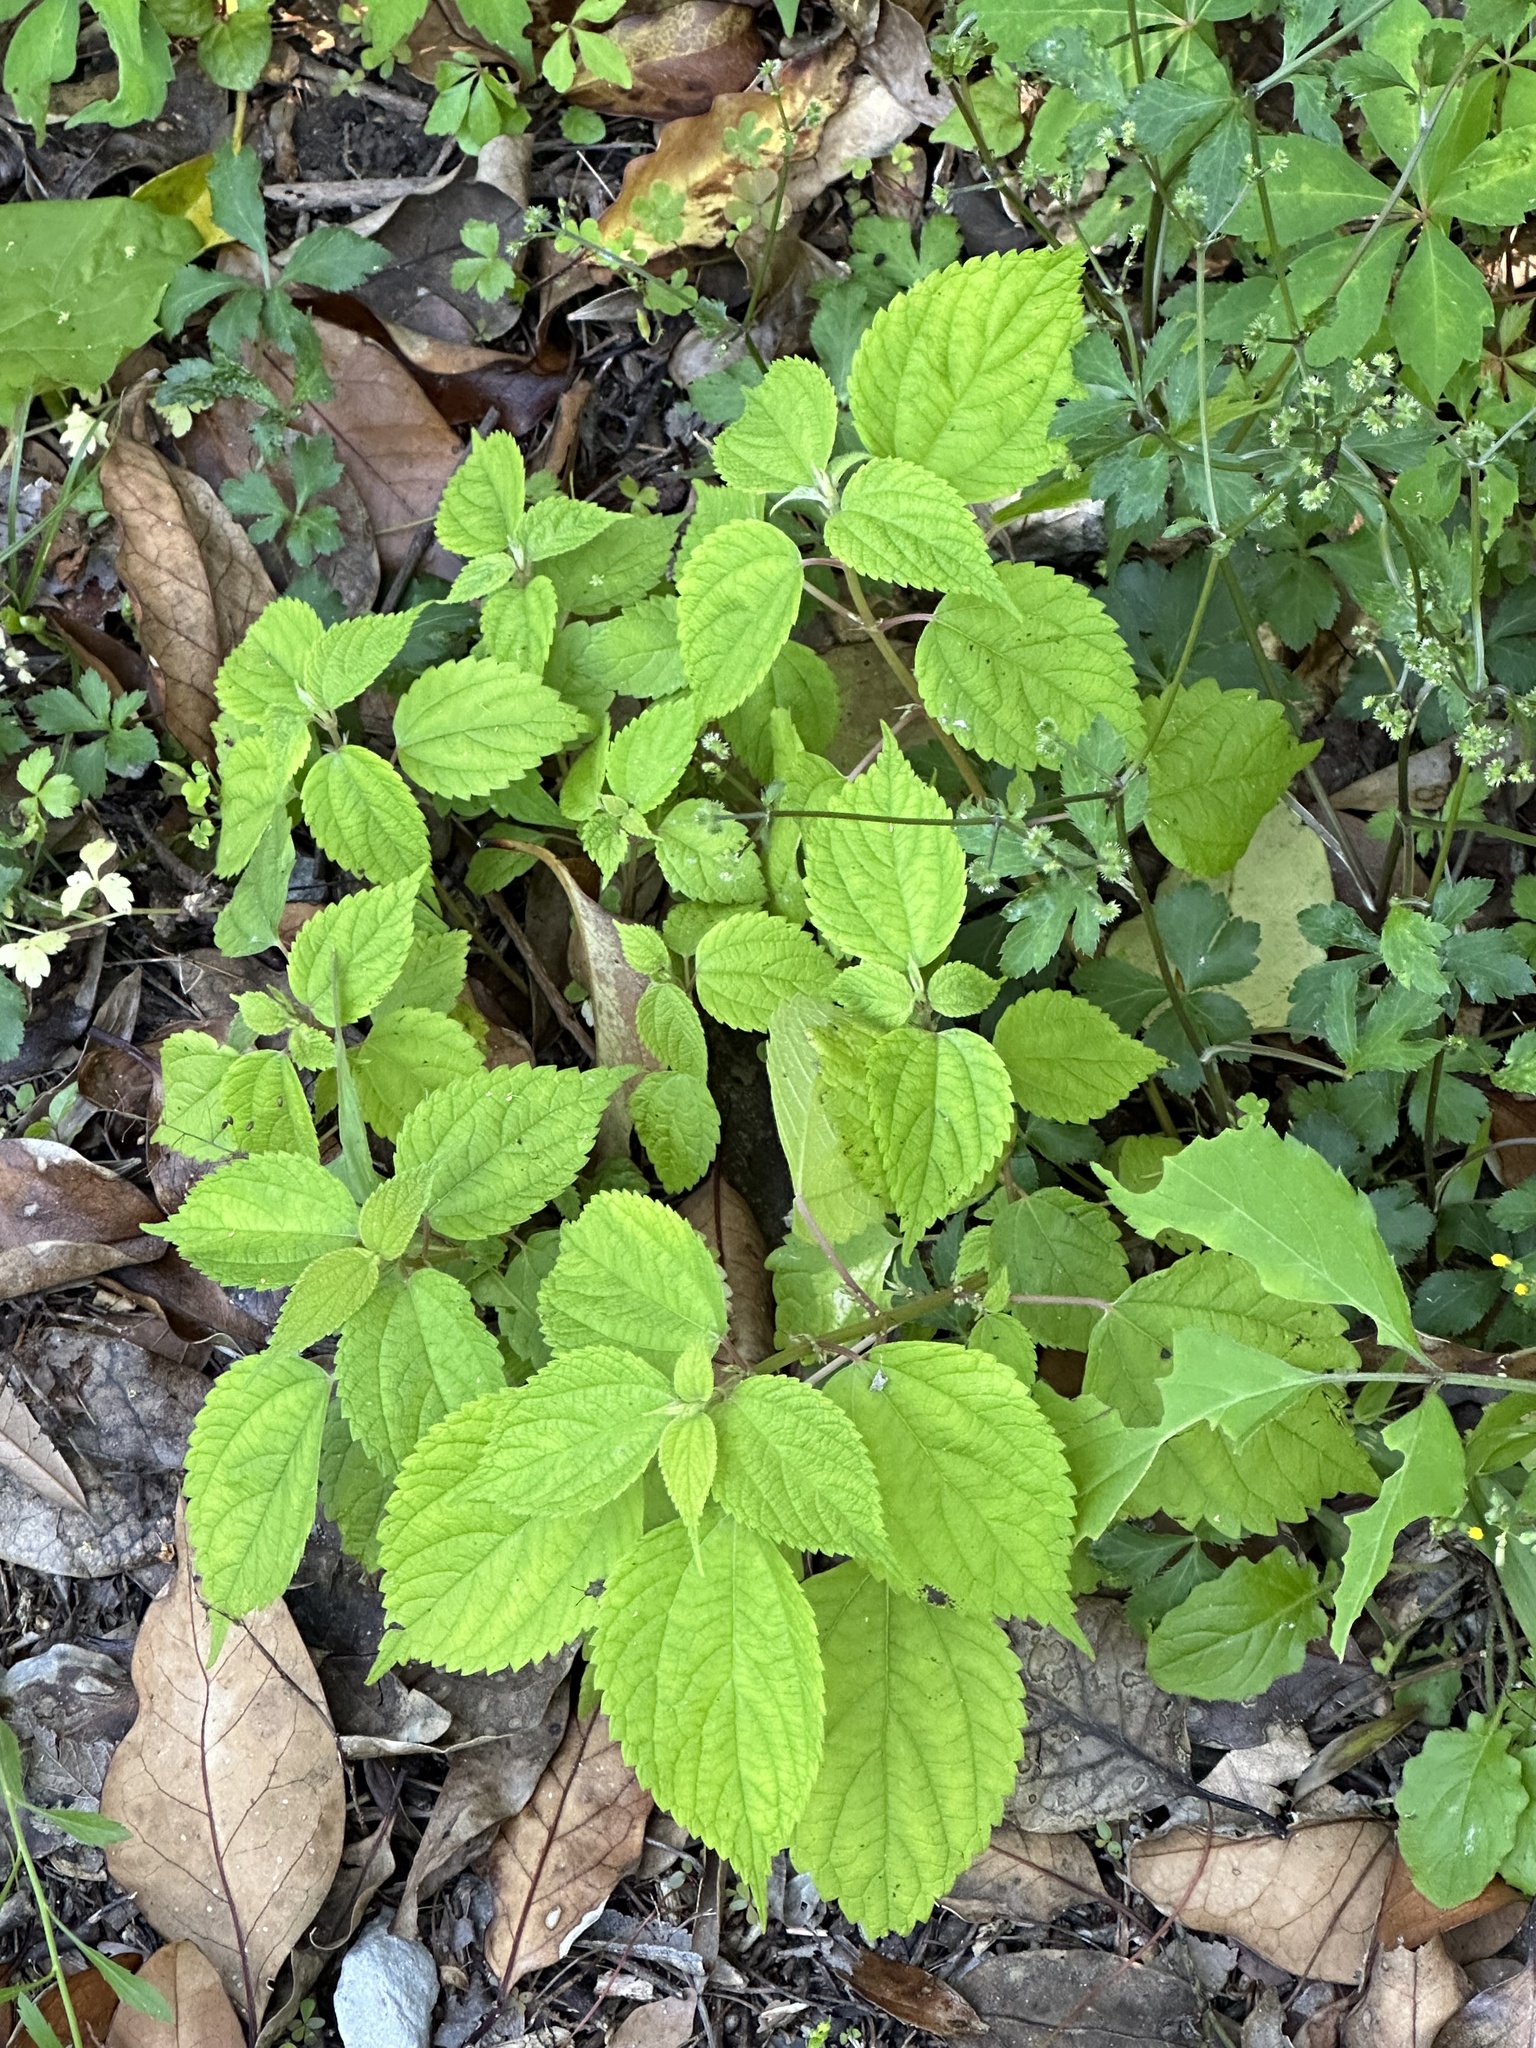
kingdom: Plantae
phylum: Tracheophyta
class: Magnoliopsida
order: Rosales
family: Urticaceae
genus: Boehmeria
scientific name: Boehmeria cylindrica
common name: Bog-hemp
